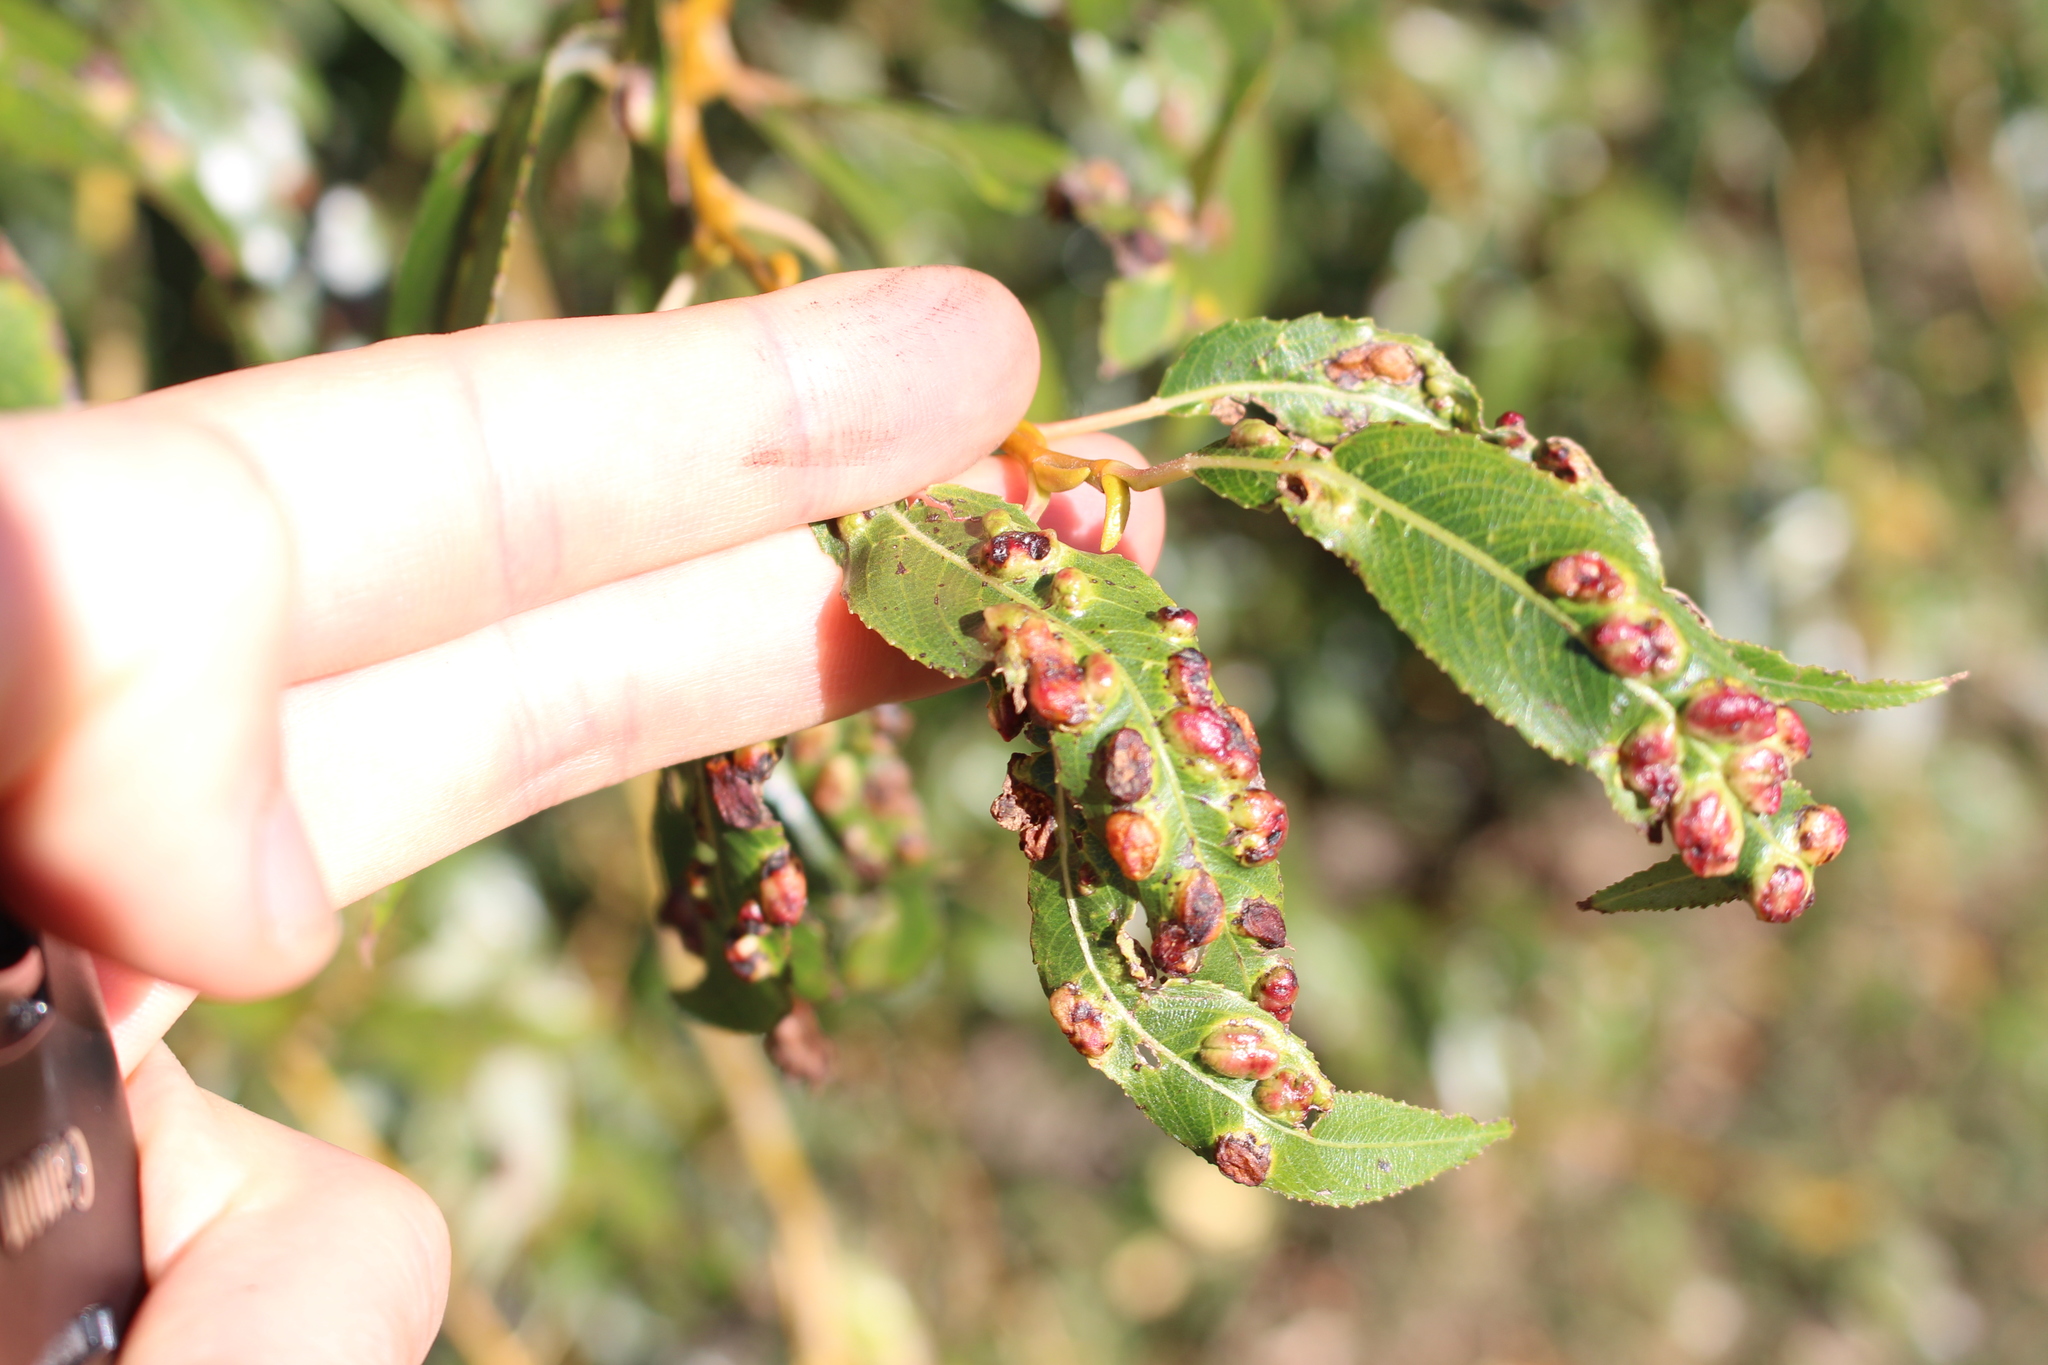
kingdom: Animalia
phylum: Arthropoda
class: Insecta
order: Hymenoptera
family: Tenthredinidae
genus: Pontania
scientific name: Pontania proxima
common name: Common sawfly
